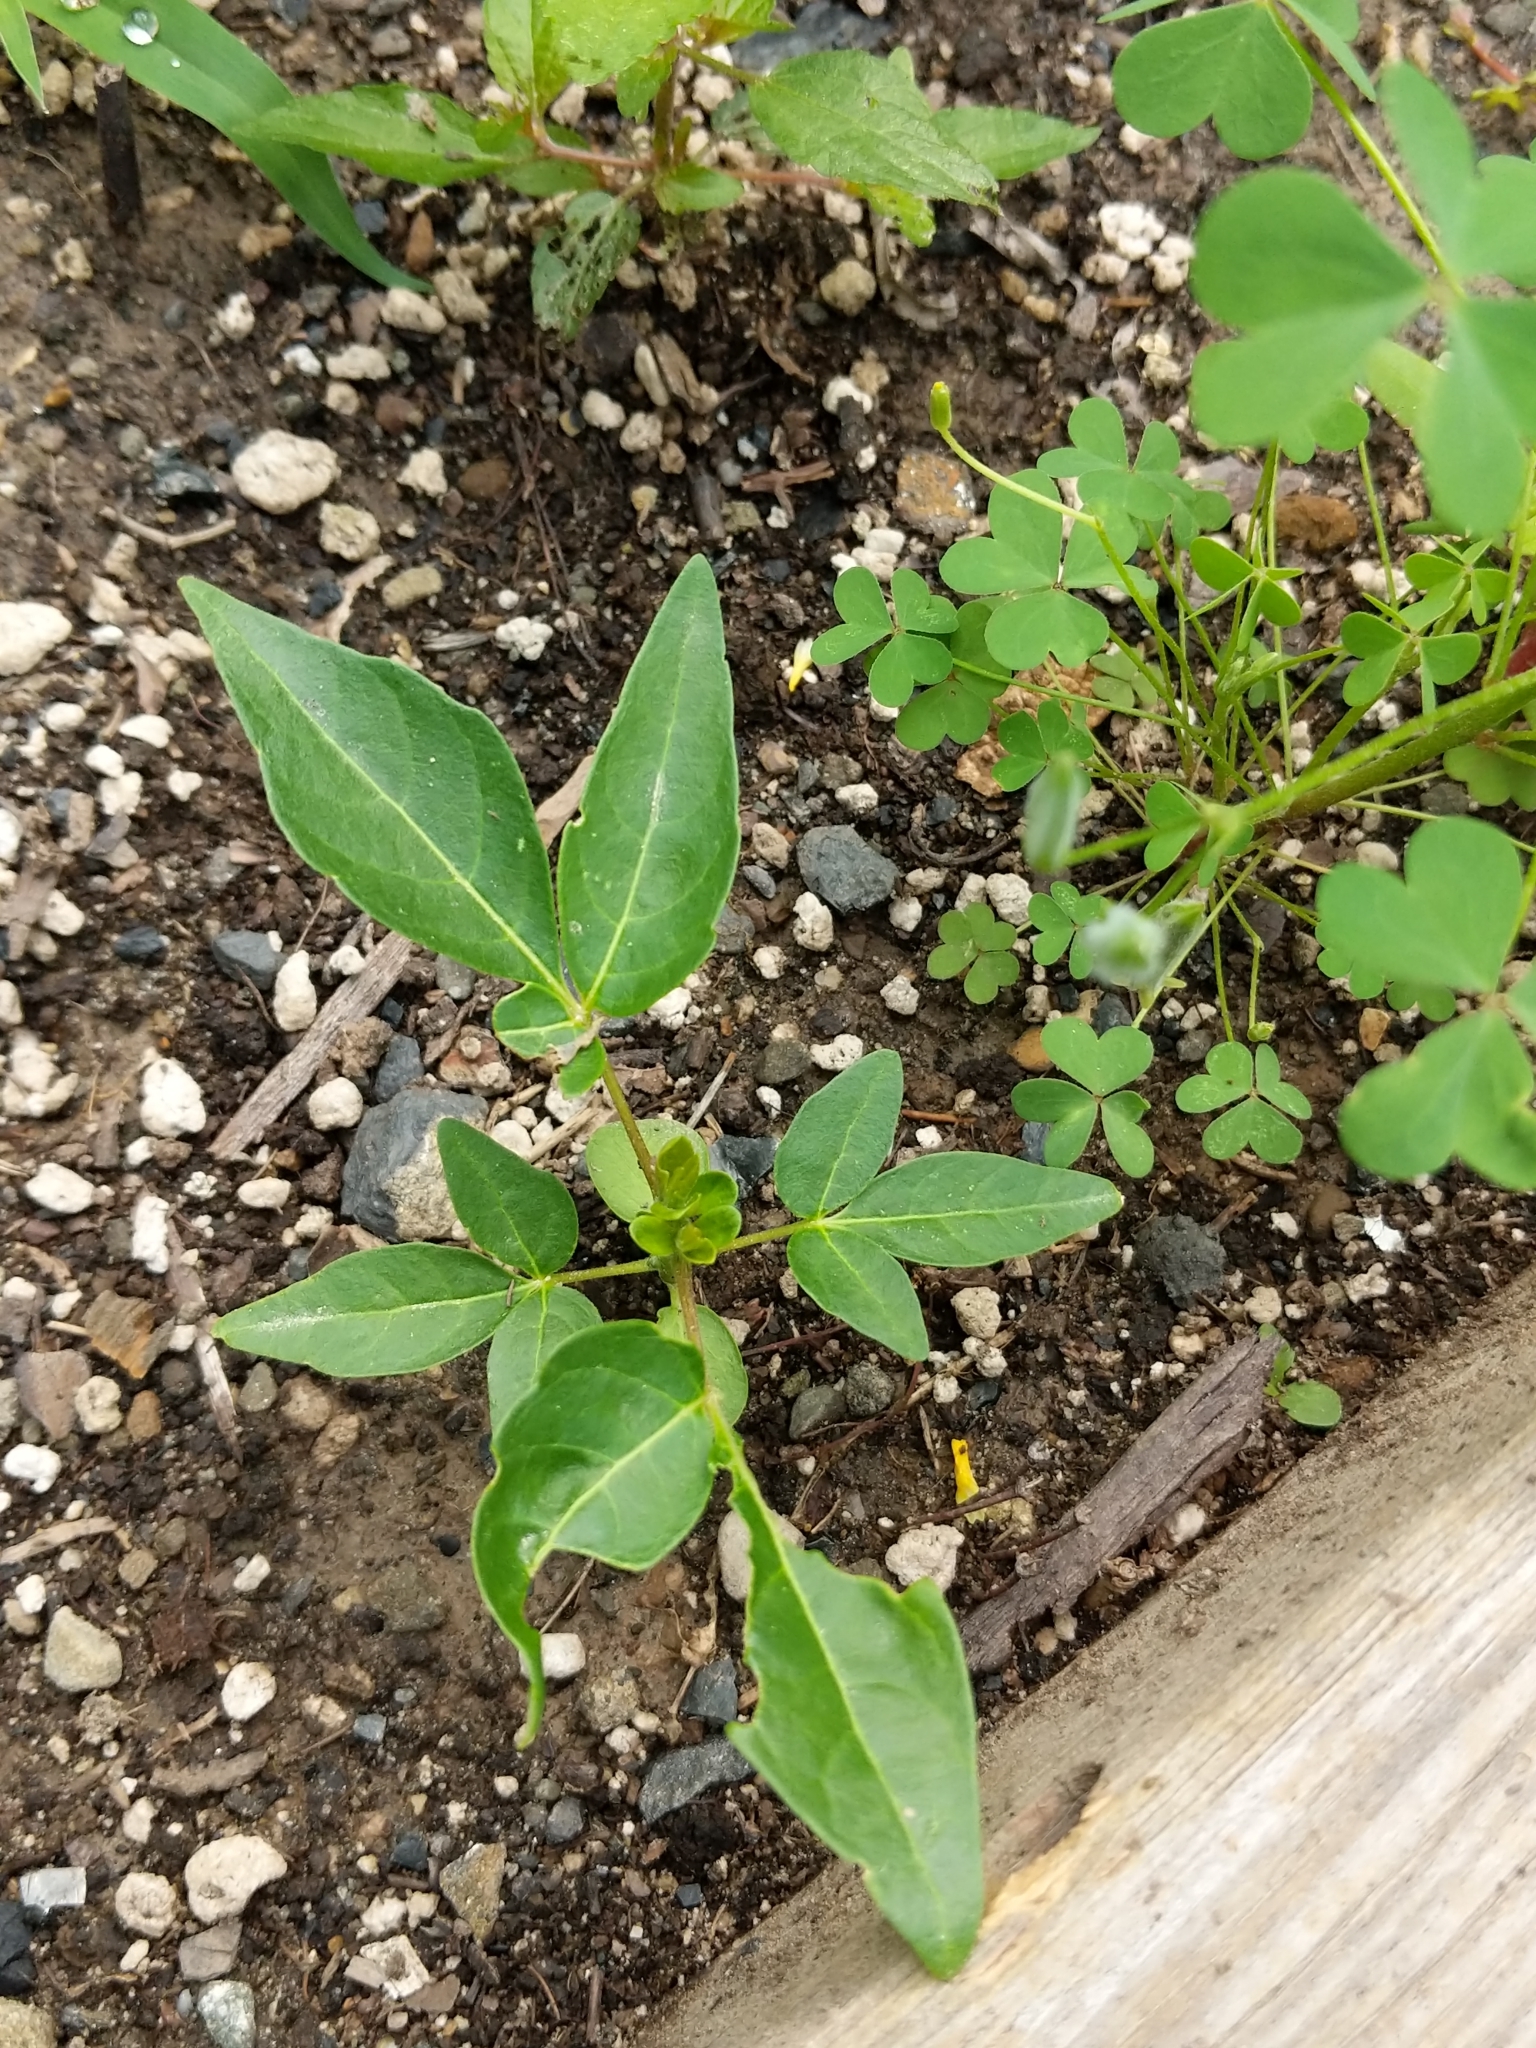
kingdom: Plantae
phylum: Tracheophyta
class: Magnoliopsida
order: Sapindales
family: Simaroubaceae
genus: Ailanthus
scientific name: Ailanthus altissima
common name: Tree-of-heaven
